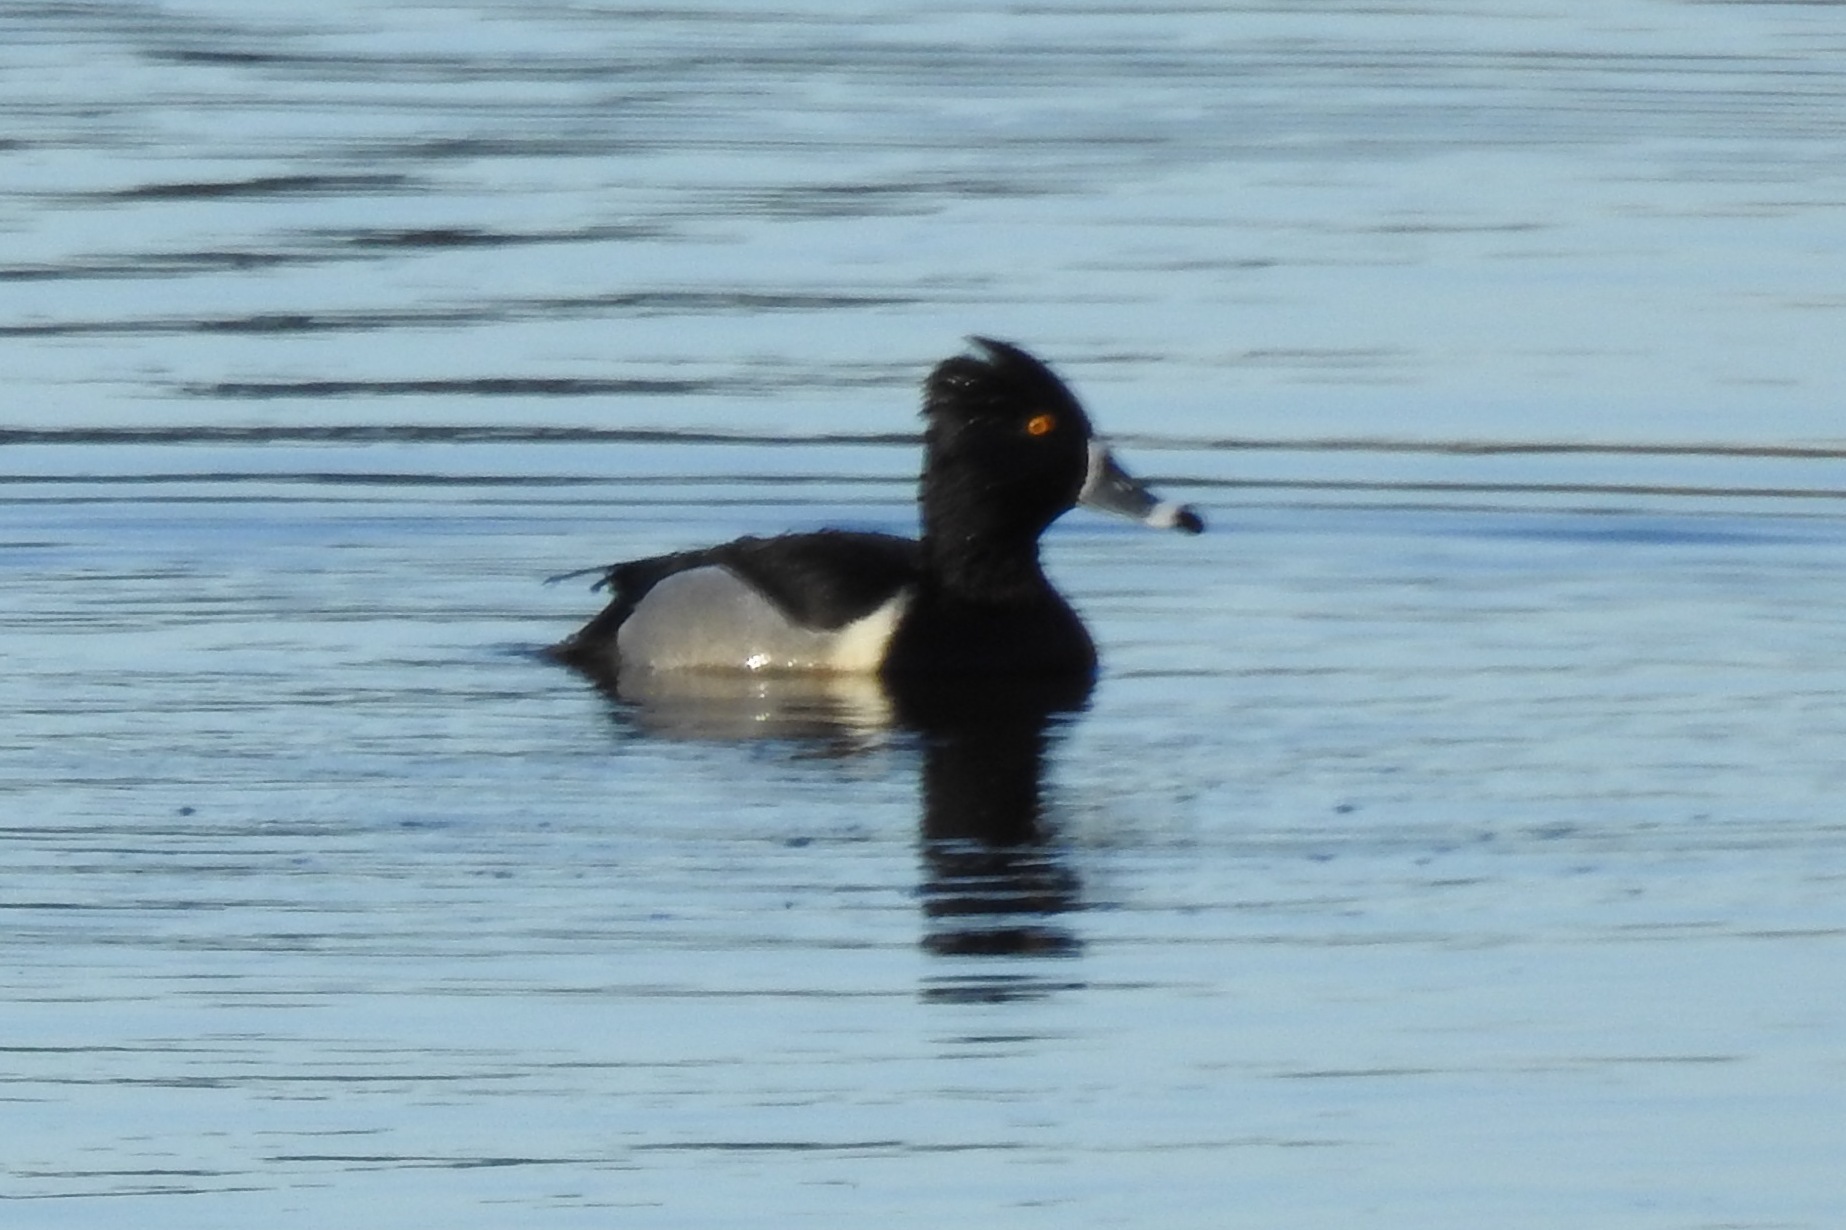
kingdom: Animalia
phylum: Chordata
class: Aves
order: Anseriformes
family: Anatidae
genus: Aythya
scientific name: Aythya collaris
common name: Ring-necked duck
